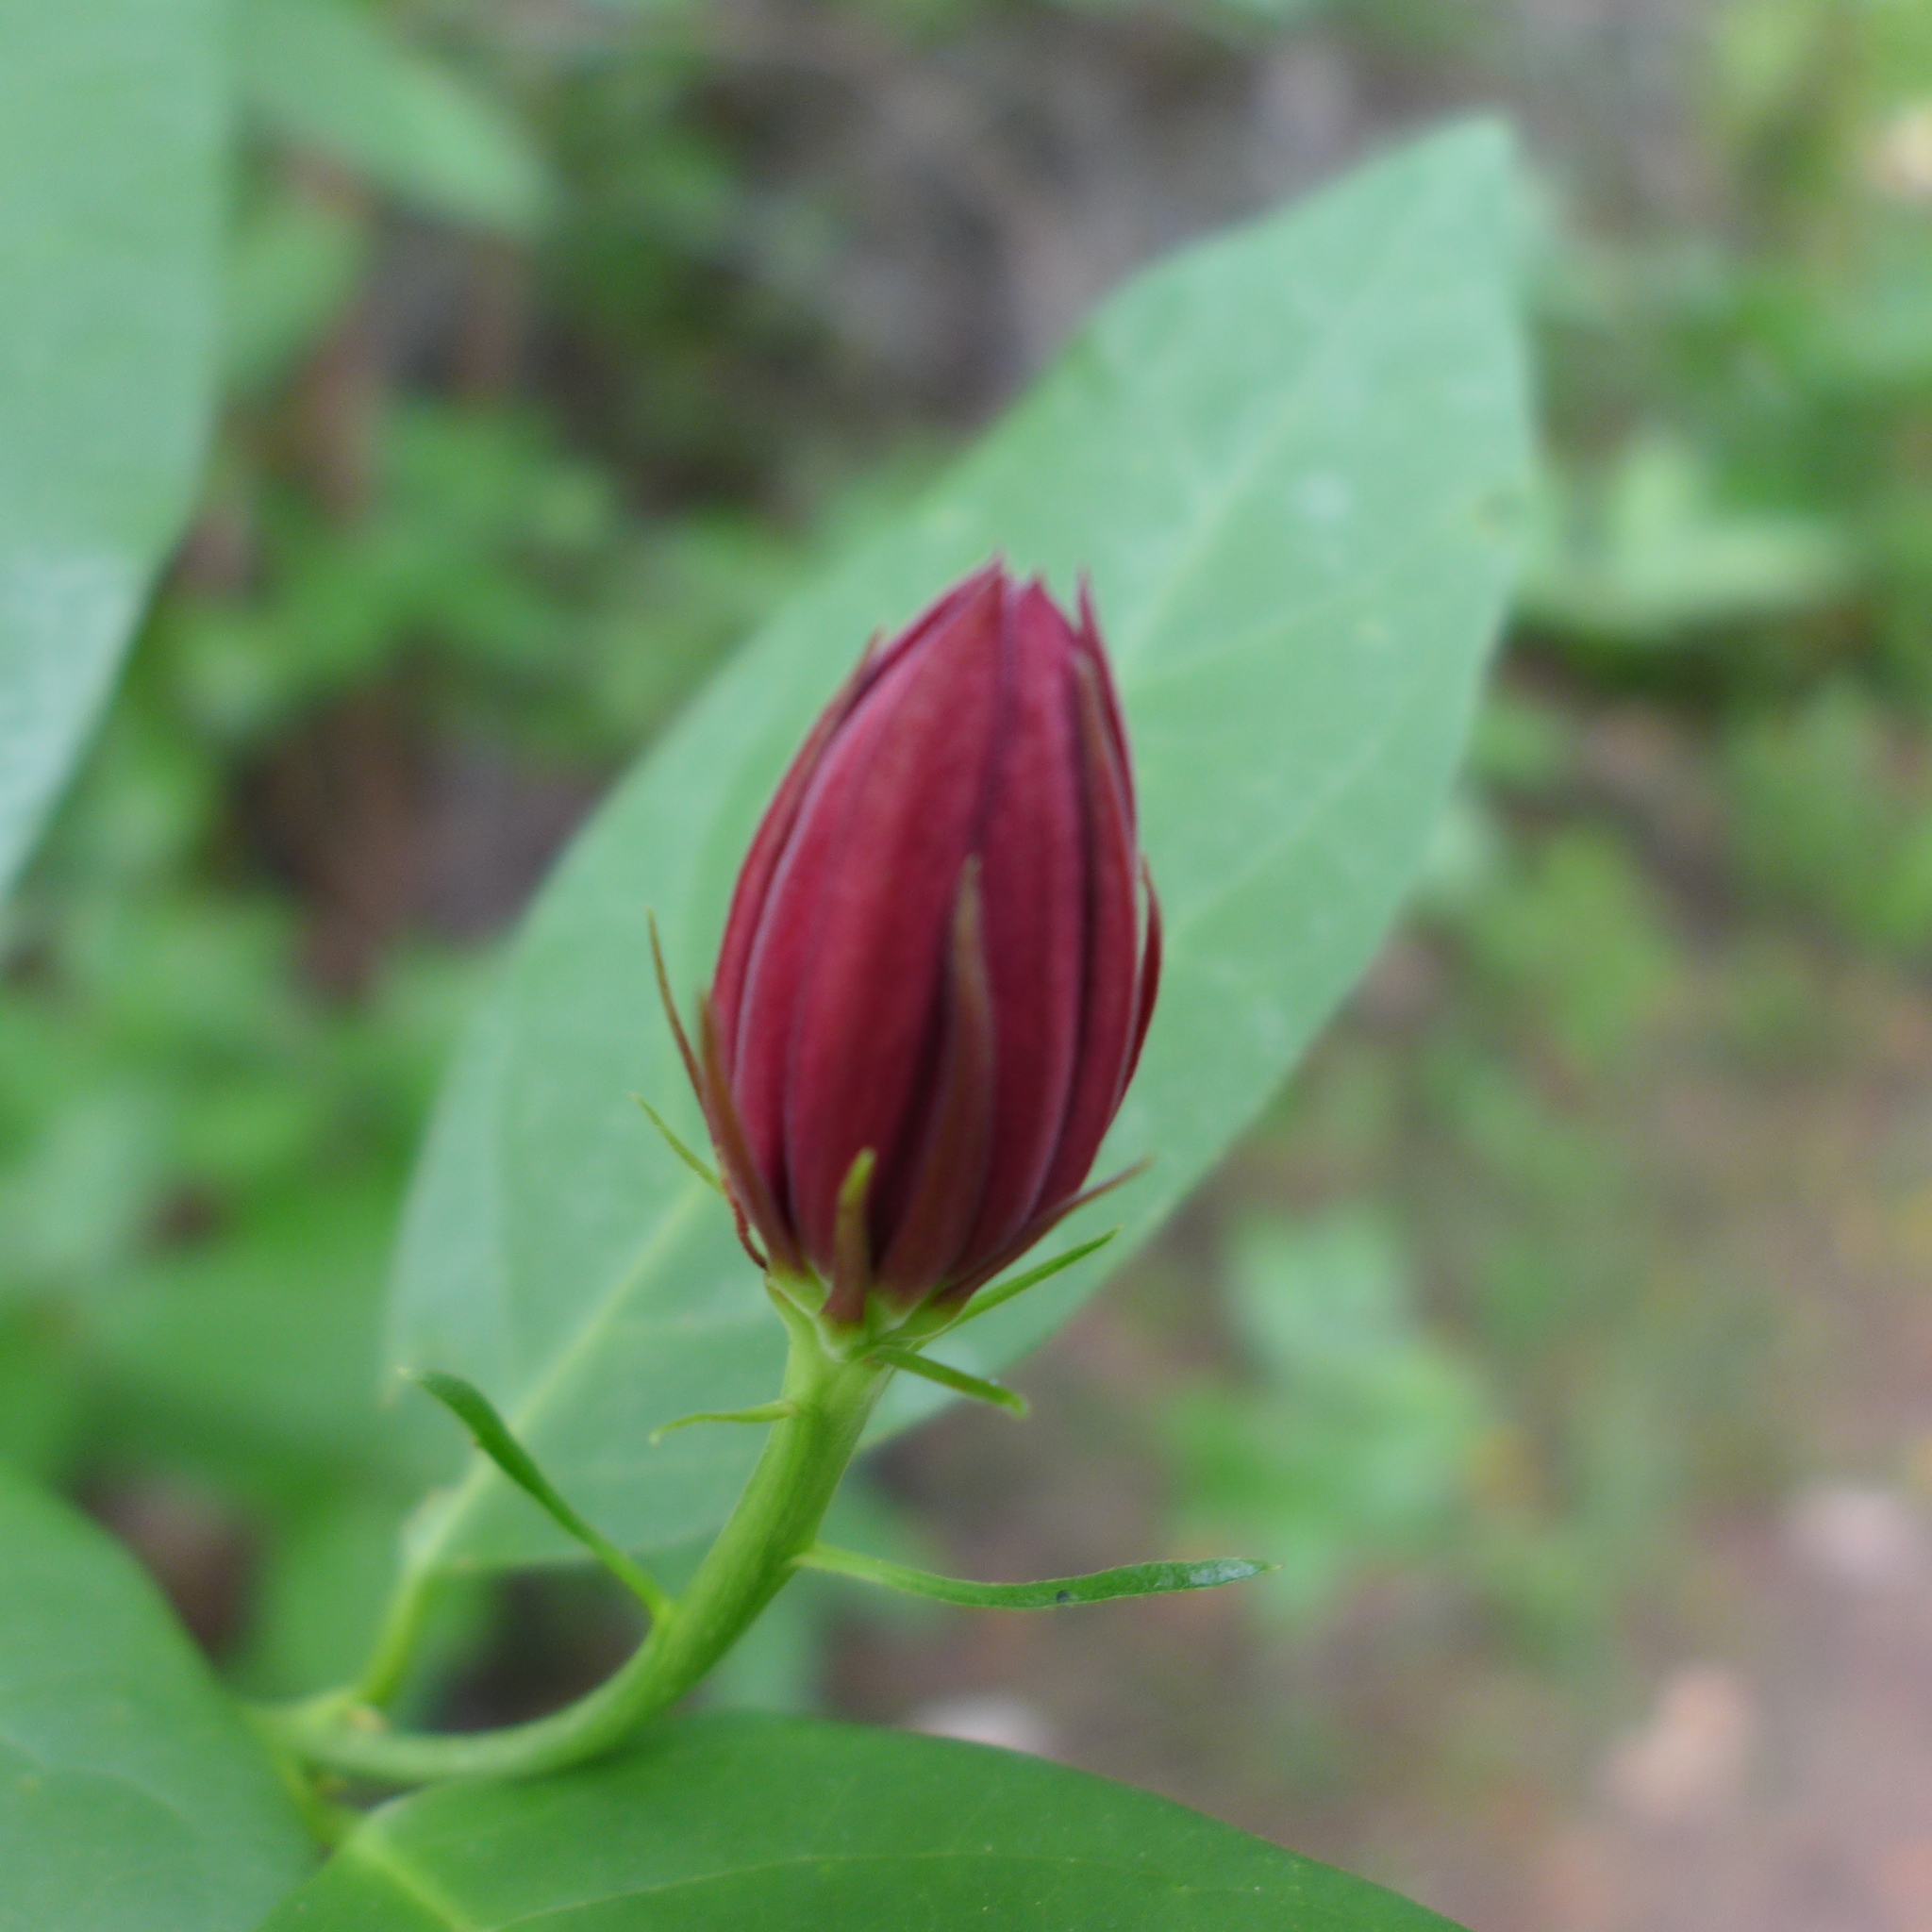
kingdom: Plantae
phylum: Tracheophyta
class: Magnoliopsida
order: Laurales
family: Calycanthaceae
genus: Calycanthus
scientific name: Calycanthus occidentalis
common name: California spicebush
